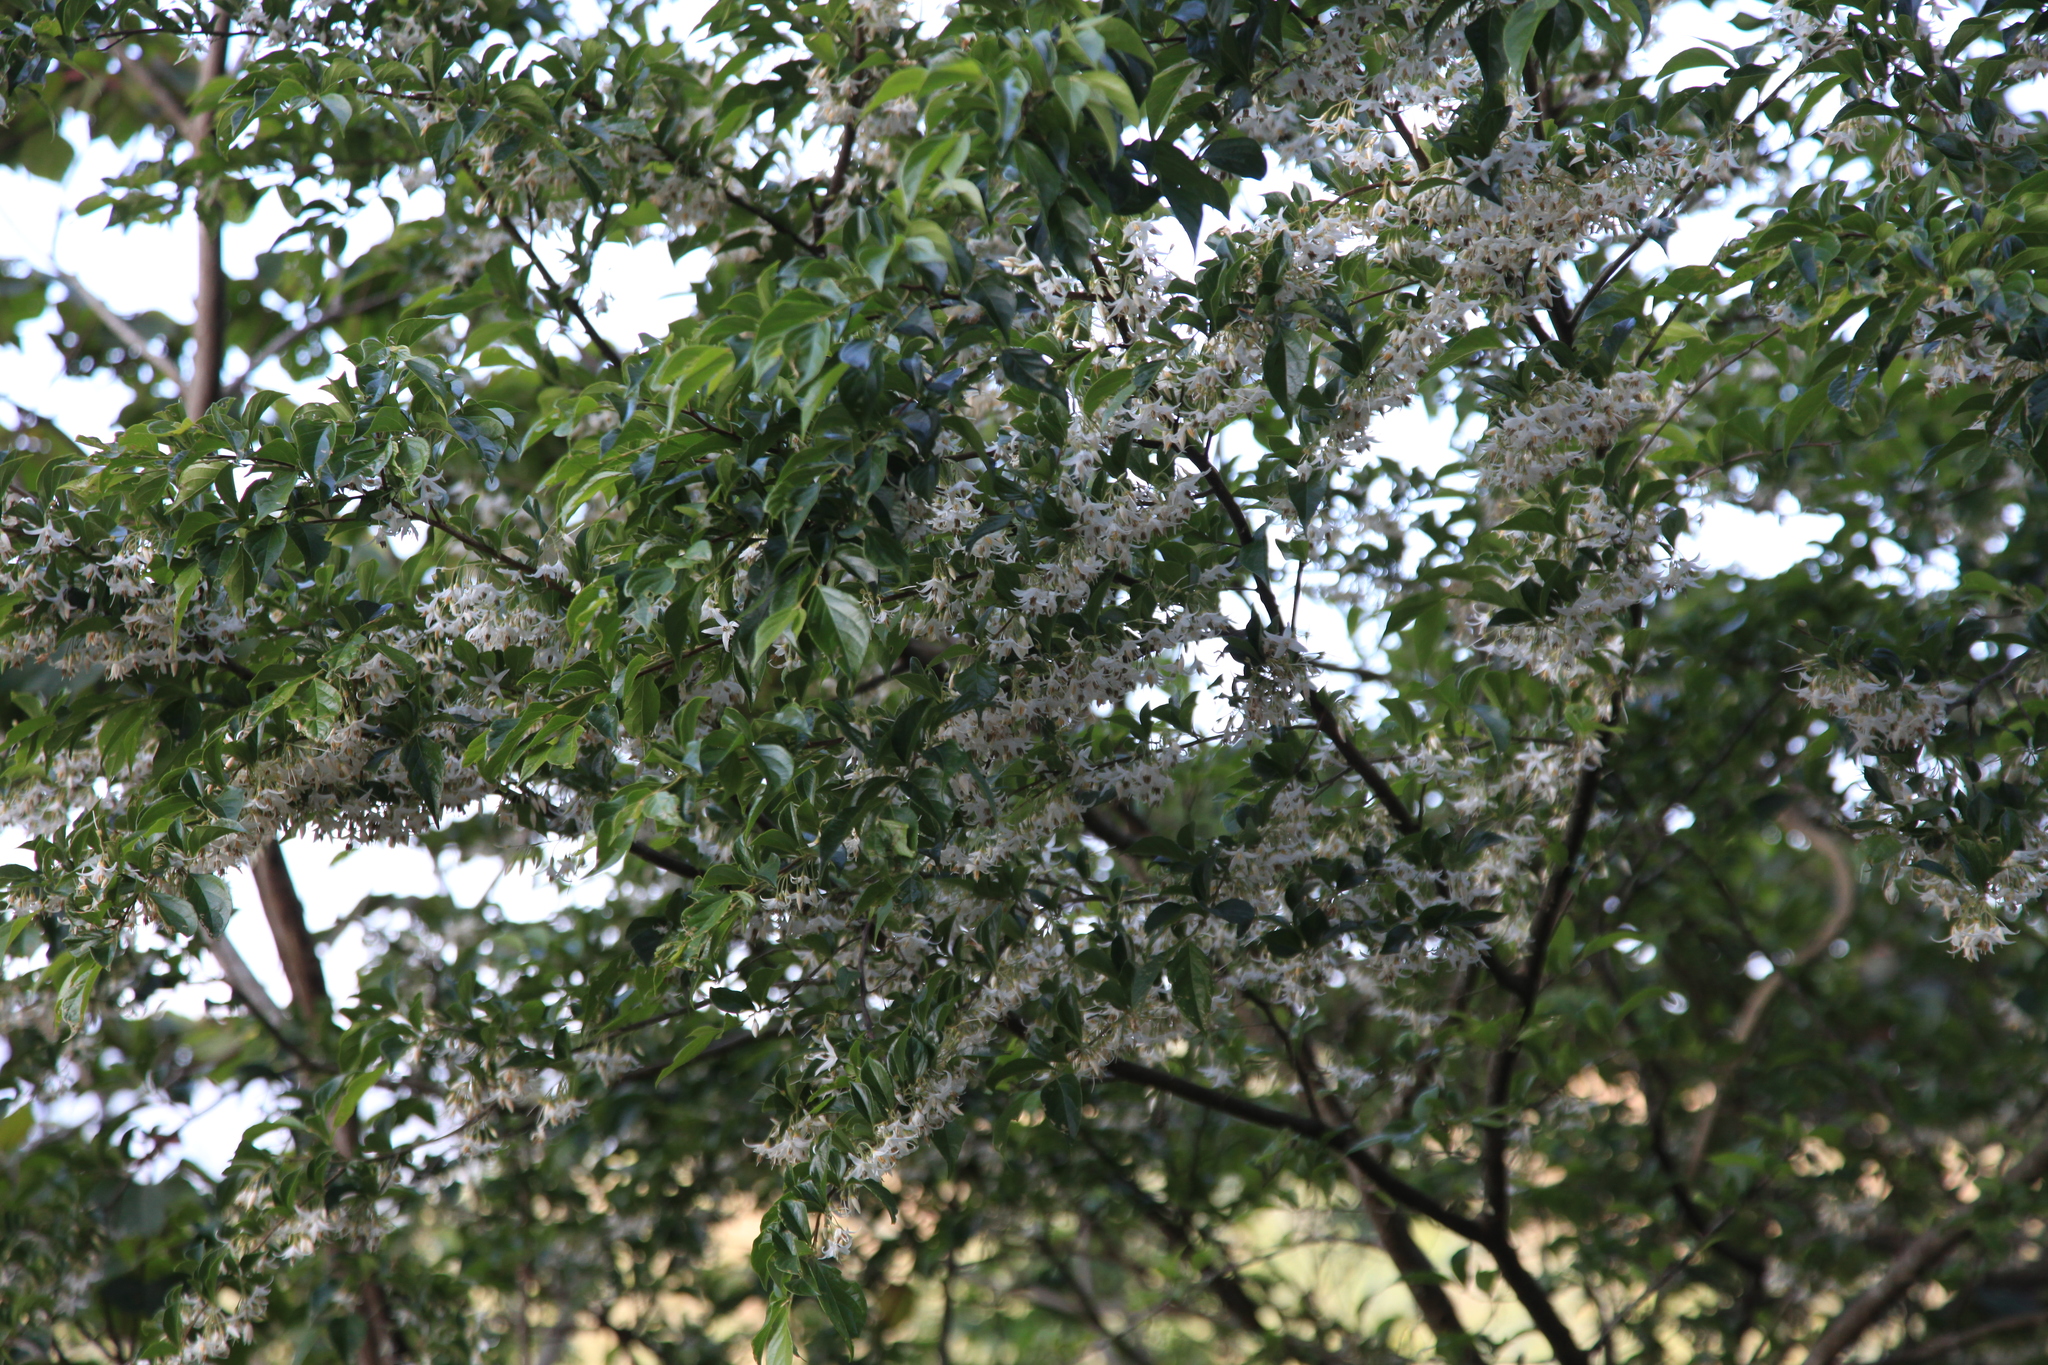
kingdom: Plantae
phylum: Tracheophyta
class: Magnoliopsida
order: Ericales
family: Styracaceae
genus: Styrax
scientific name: Styrax formosanus
